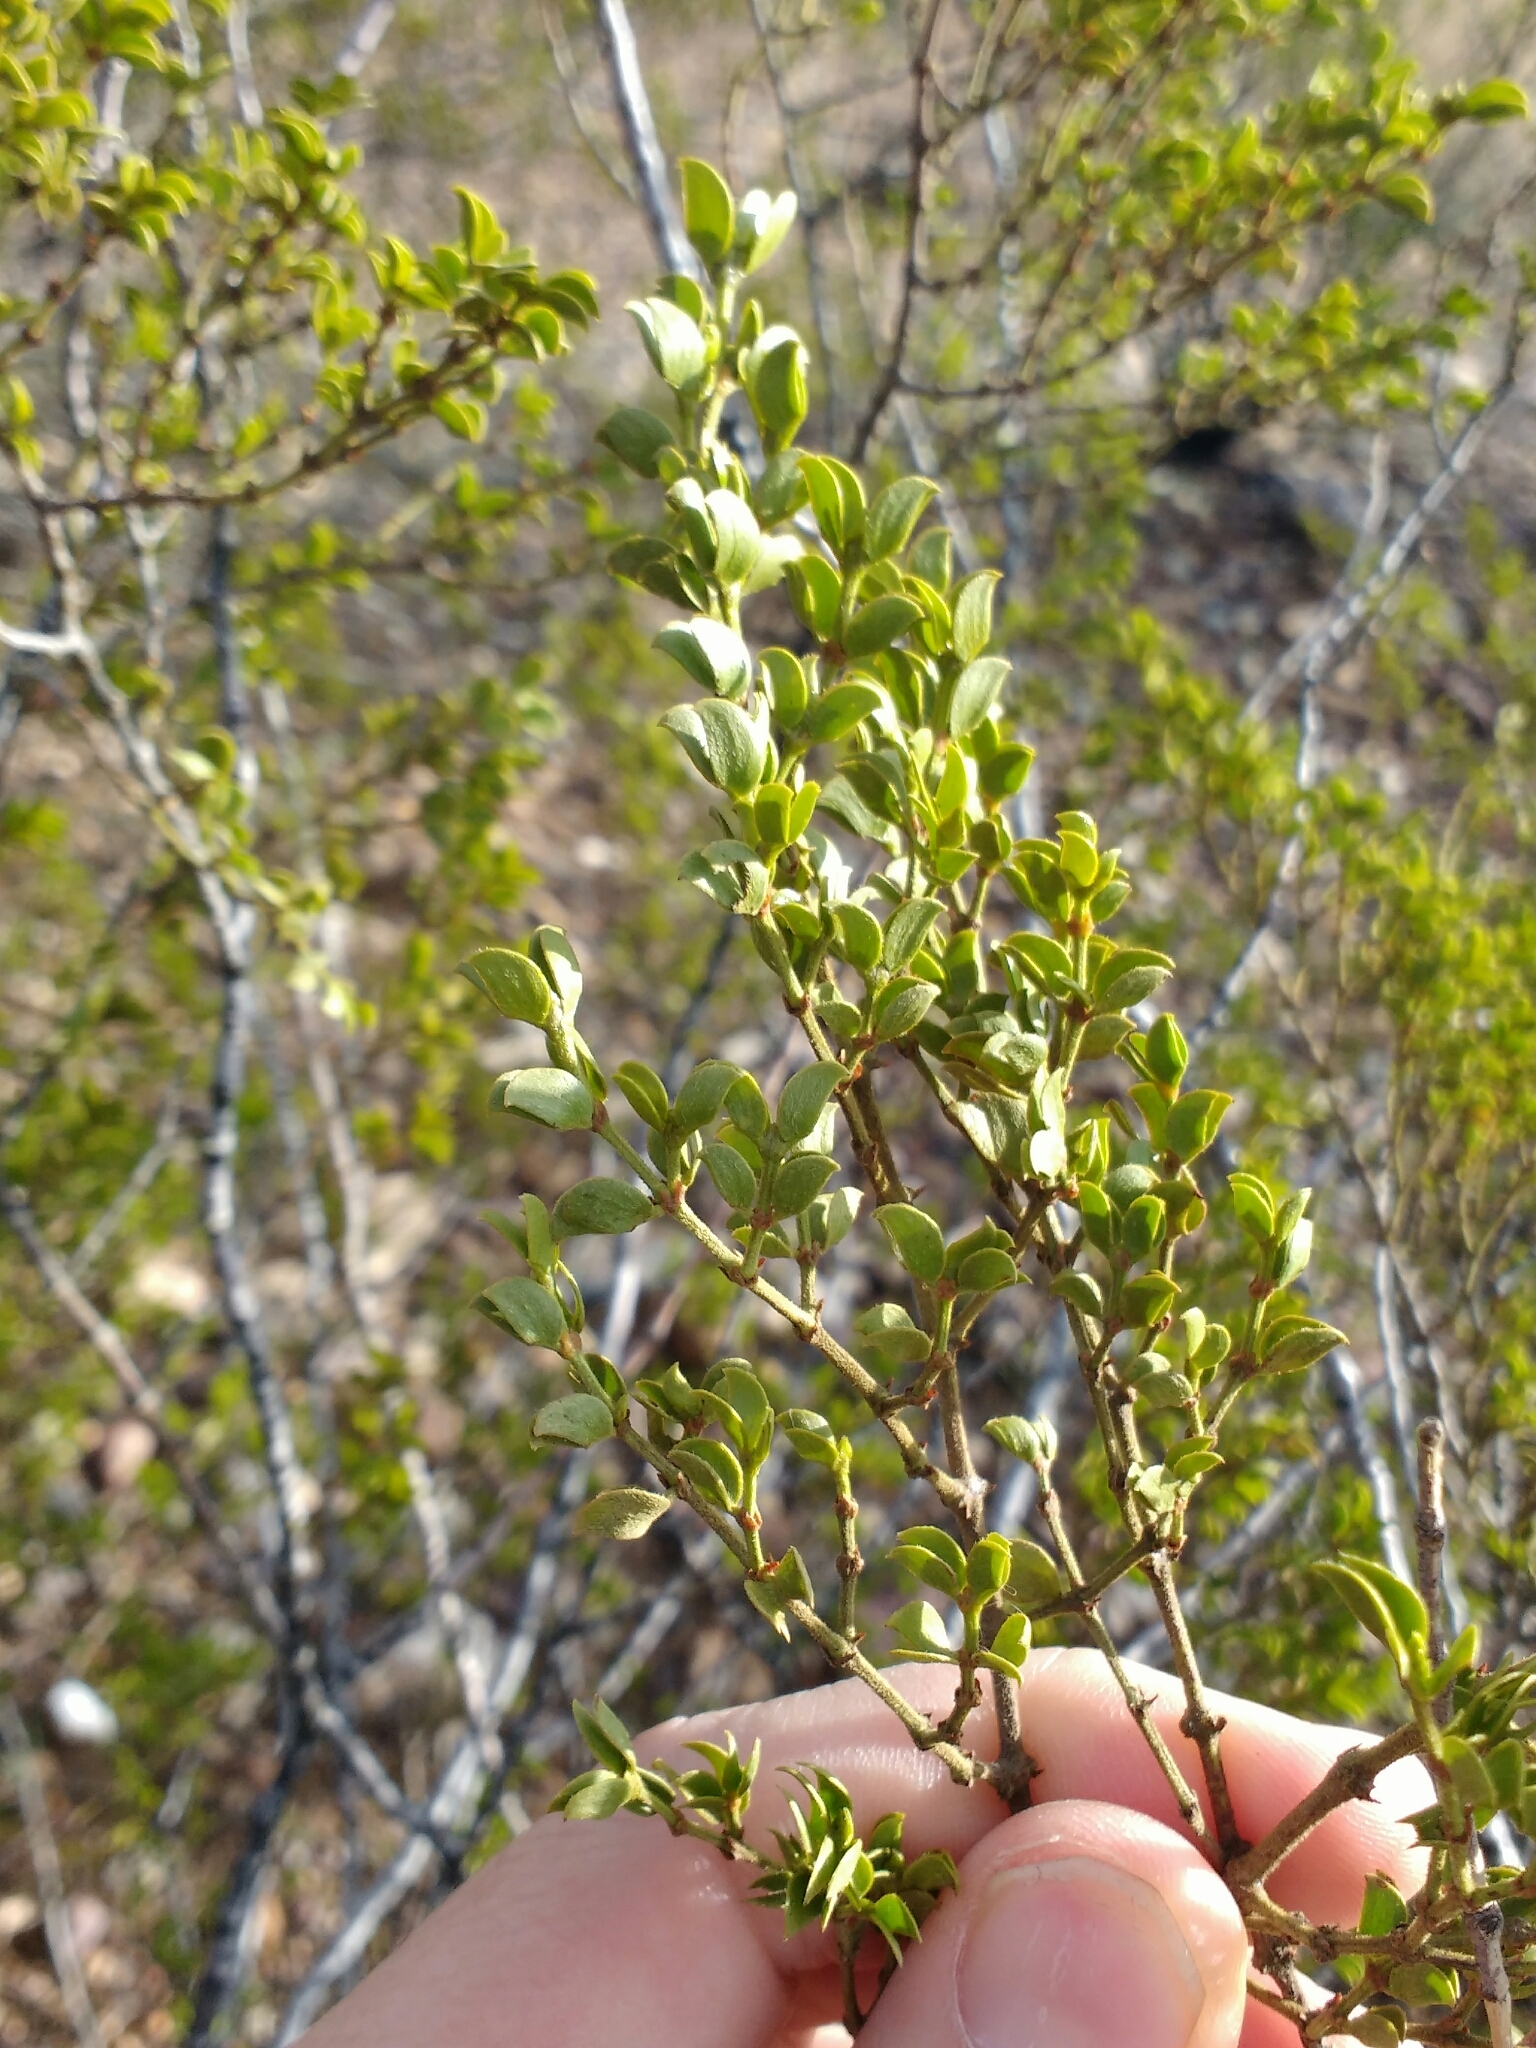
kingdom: Plantae
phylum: Tracheophyta
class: Magnoliopsida
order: Zygophyllales
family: Zygophyllaceae
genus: Larrea
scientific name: Larrea tridentata
